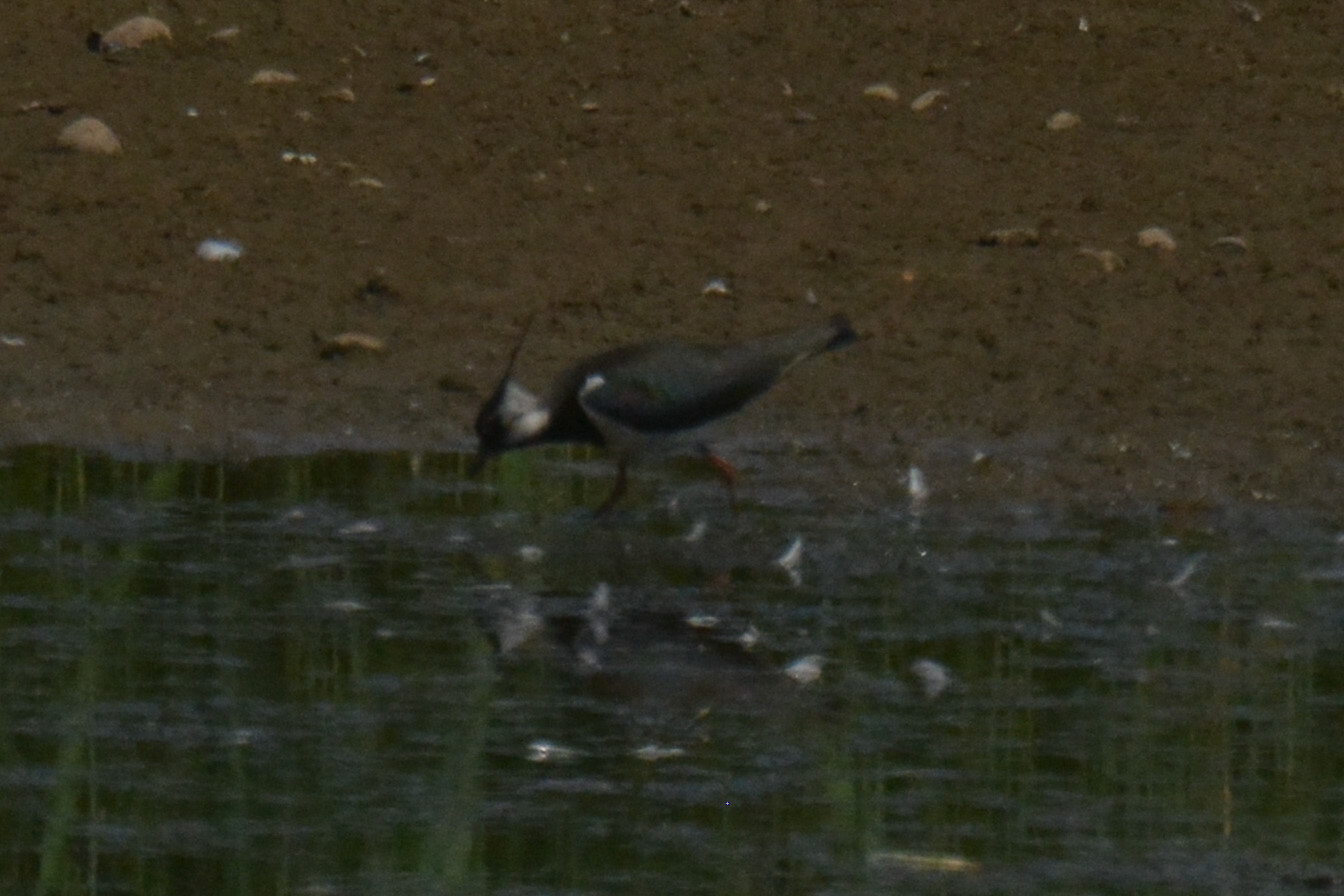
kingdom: Animalia
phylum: Chordata
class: Aves
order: Charadriiformes
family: Charadriidae
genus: Vanellus
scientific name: Vanellus vanellus
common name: Northern lapwing
